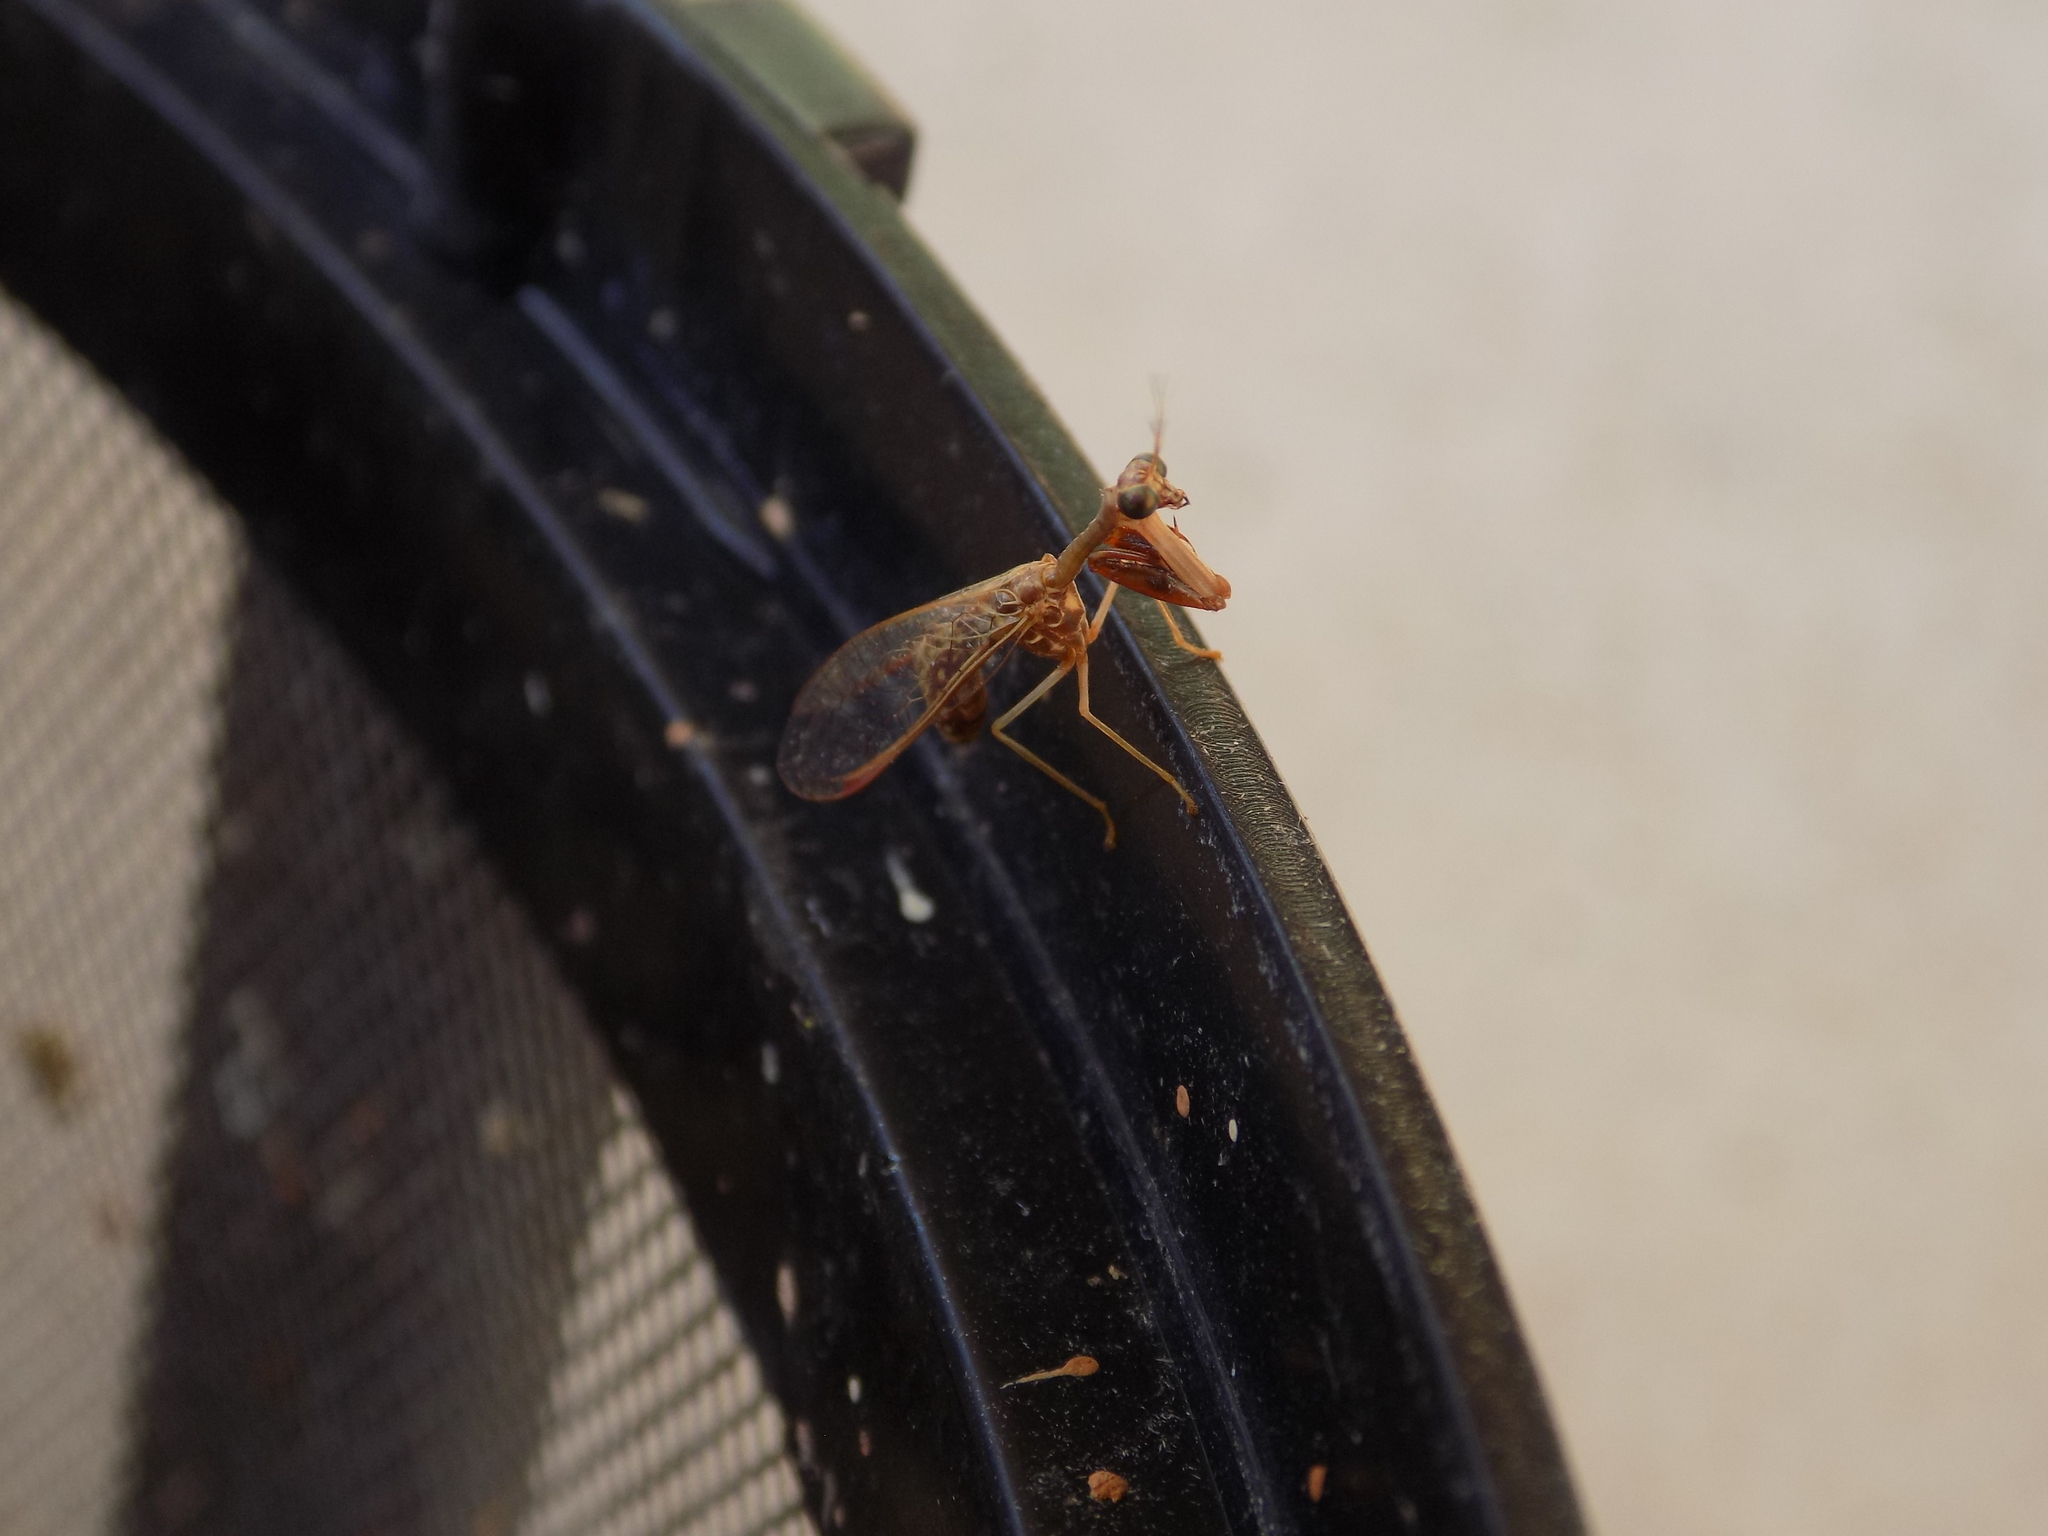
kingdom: Animalia
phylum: Arthropoda
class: Insecta
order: Neuroptera
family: Mantispidae
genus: Dicromantispa
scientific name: Dicromantispa sayi
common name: Say's mantidfly
